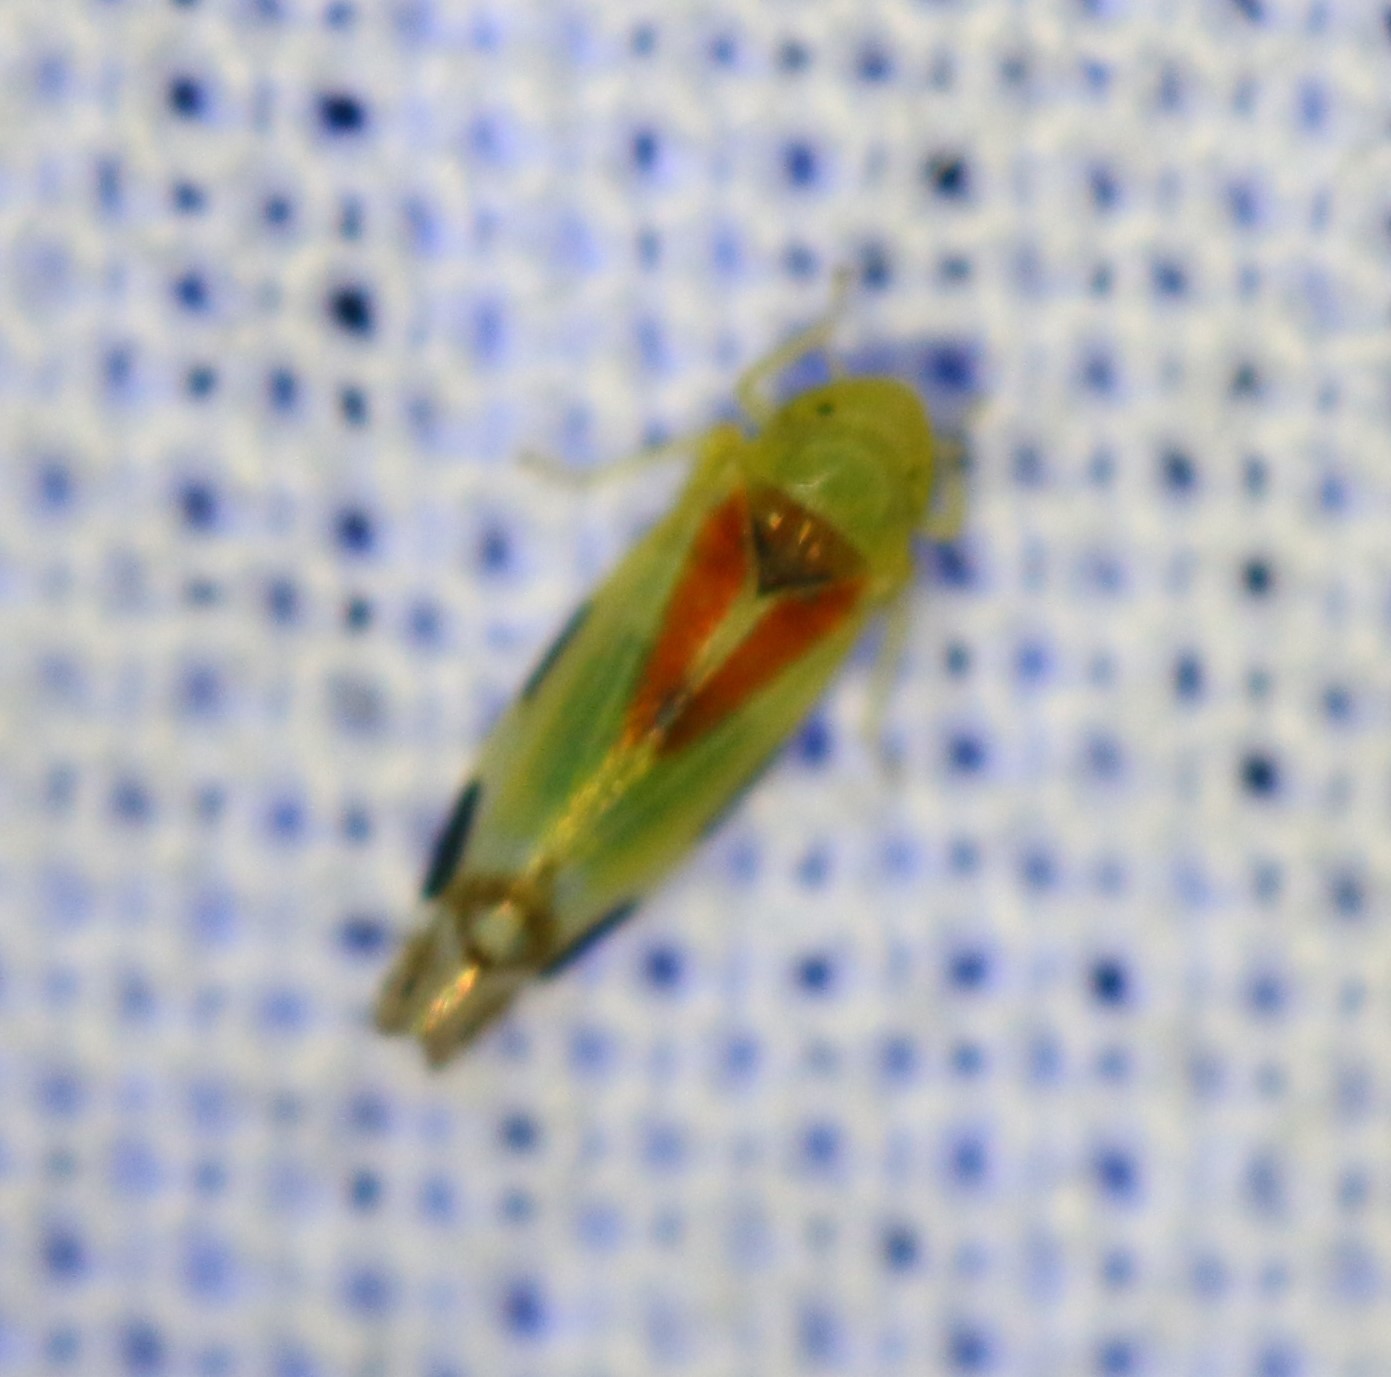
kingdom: Animalia
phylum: Arthropoda
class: Insecta
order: Hemiptera
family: Cicadellidae
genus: Zyginella
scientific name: Zyginella pulchra
